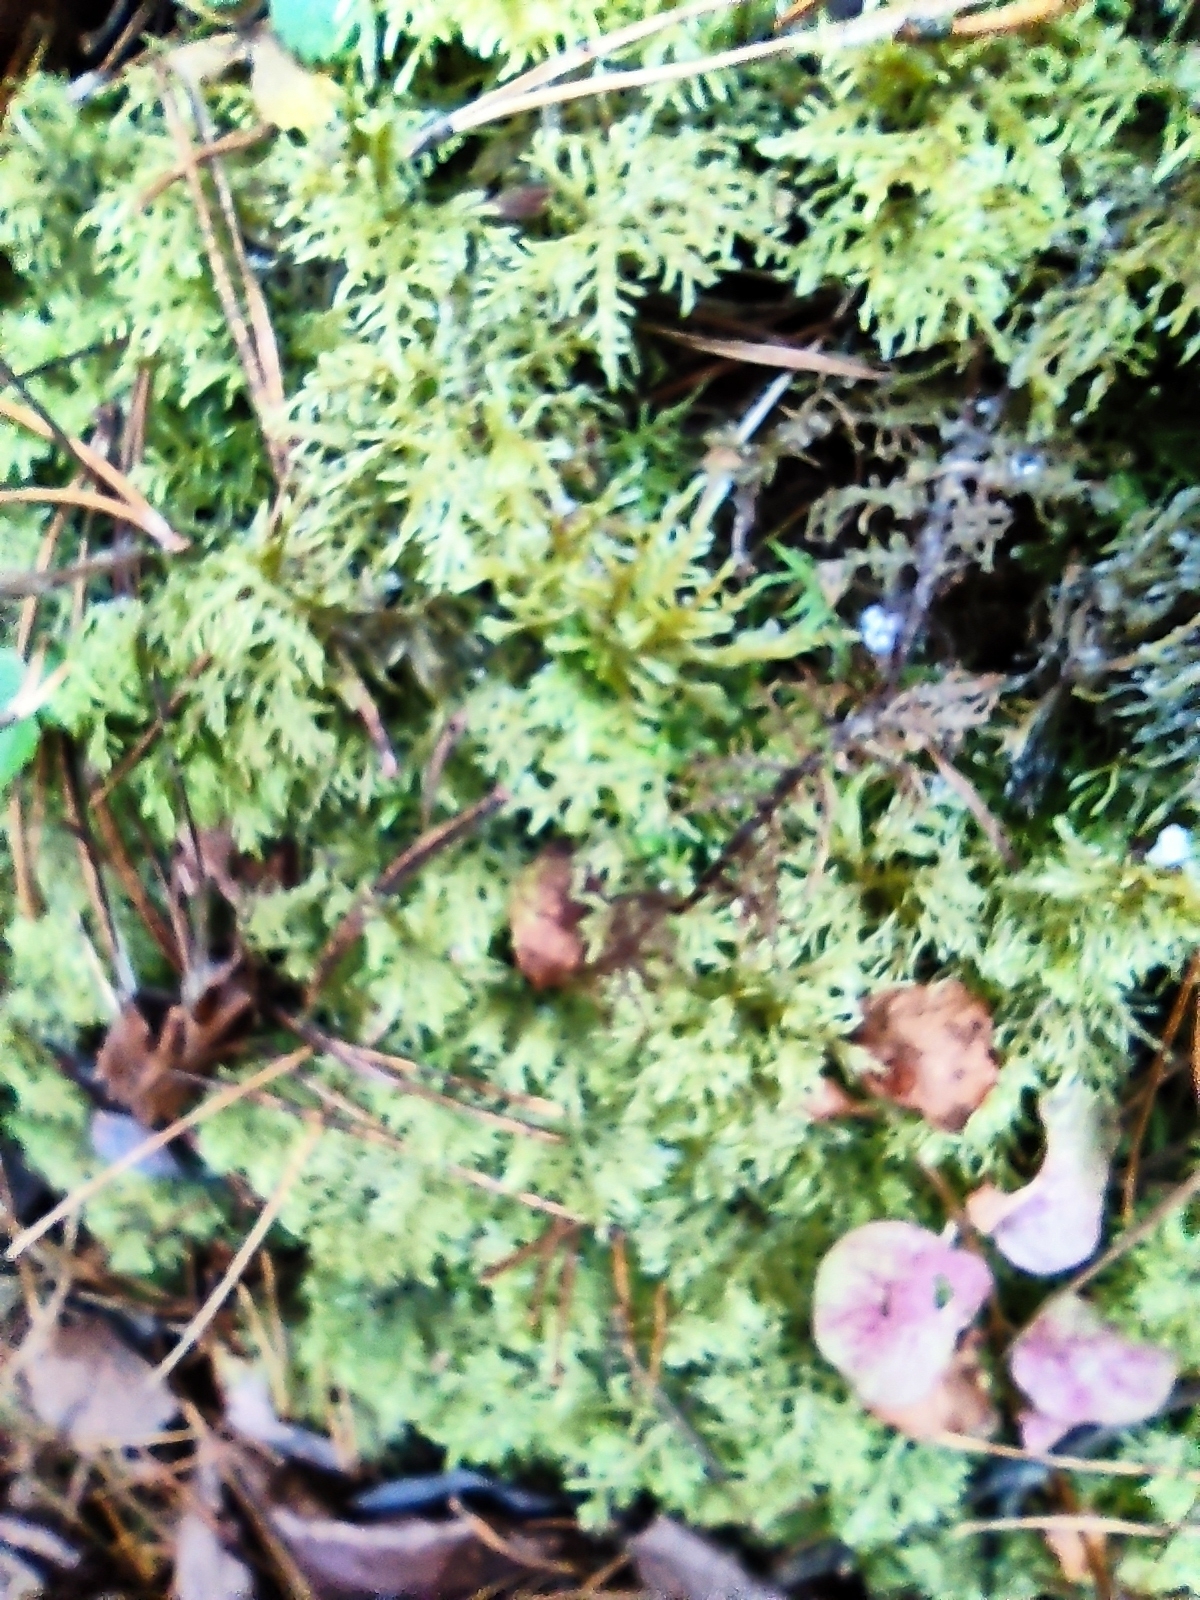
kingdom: Plantae
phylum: Bryophyta
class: Bryopsida
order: Hypnales
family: Hylocomiaceae
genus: Hylocomium
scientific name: Hylocomium splendens
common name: Stairstep moss
